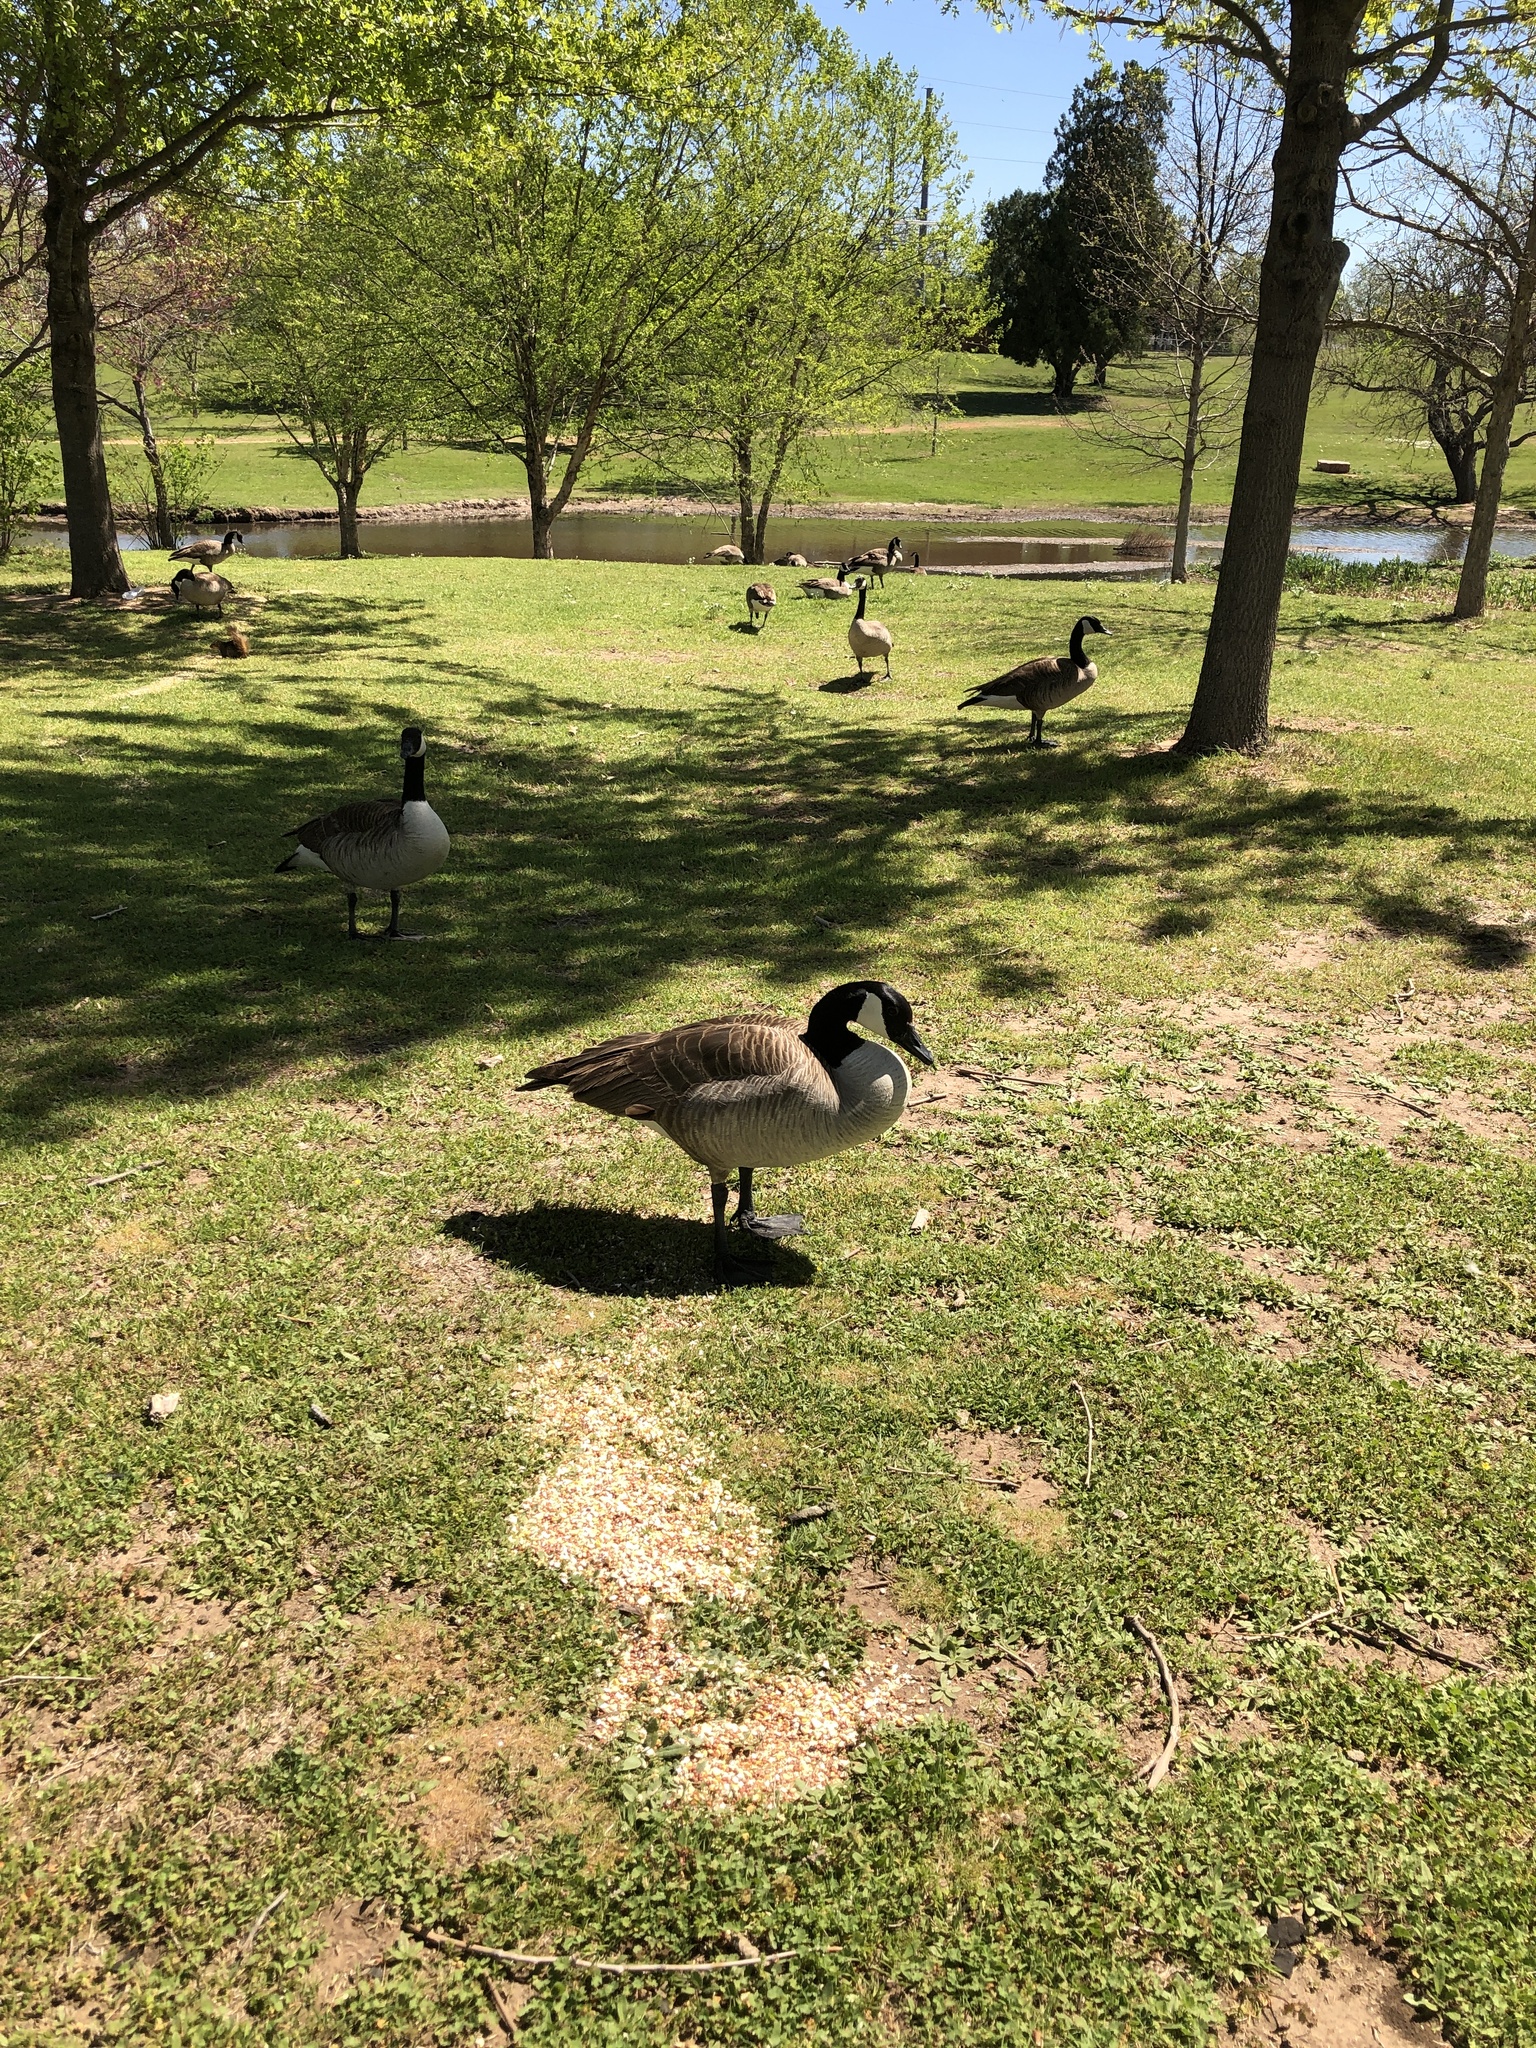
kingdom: Animalia
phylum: Chordata
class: Aves
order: Anseriformes
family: Anatidae
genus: Branta
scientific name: Branta canadensis
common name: Canada goose
